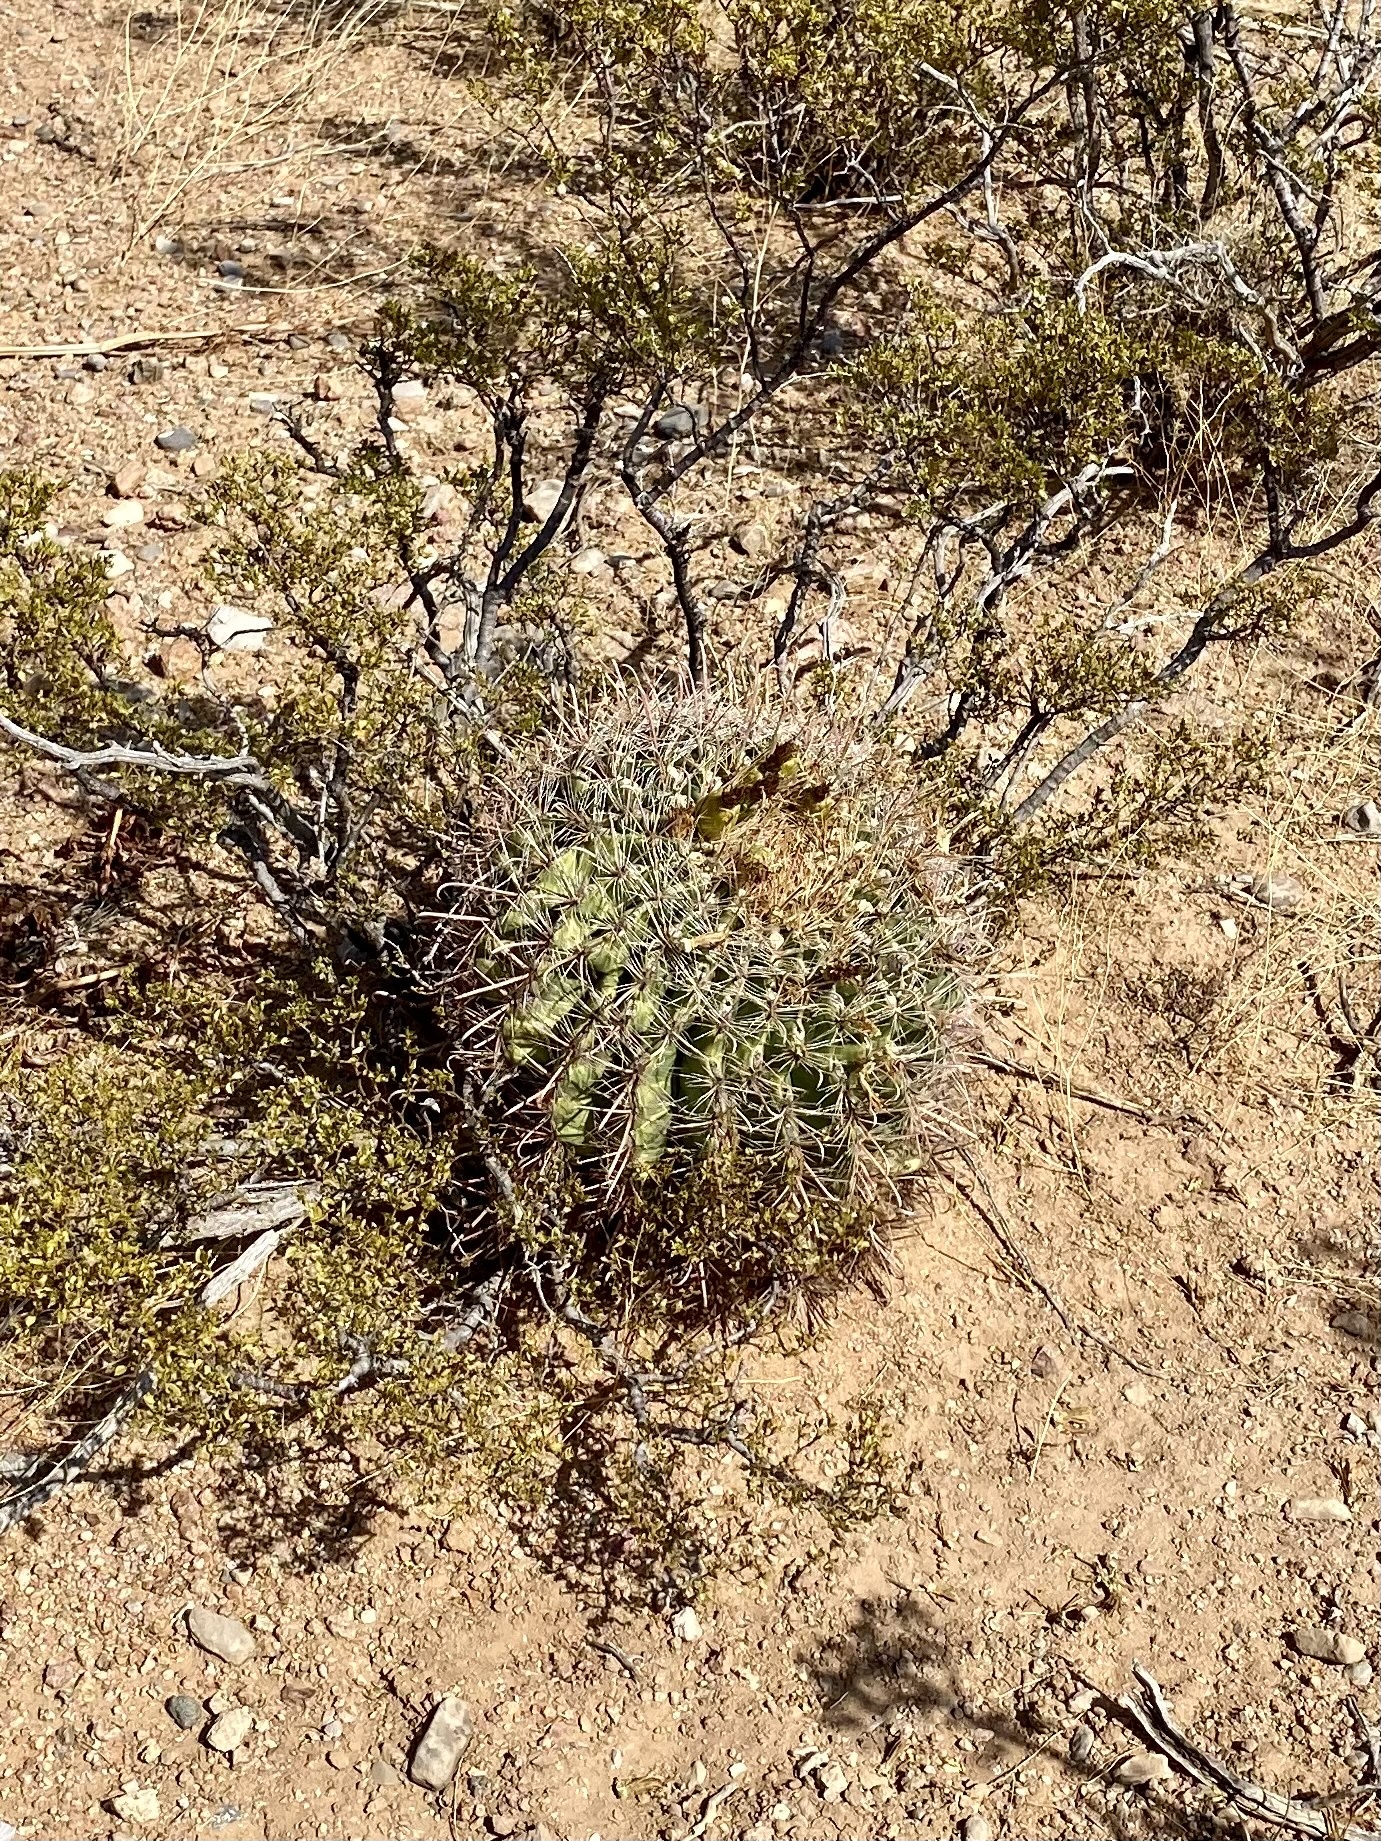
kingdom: Plantae
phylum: Tracheophyta
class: Magnoliopsida
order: Caryophyllales
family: Cactaceae
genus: Ferocactus
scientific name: Ferocactus wislizeni
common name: Candy barrel cactus
